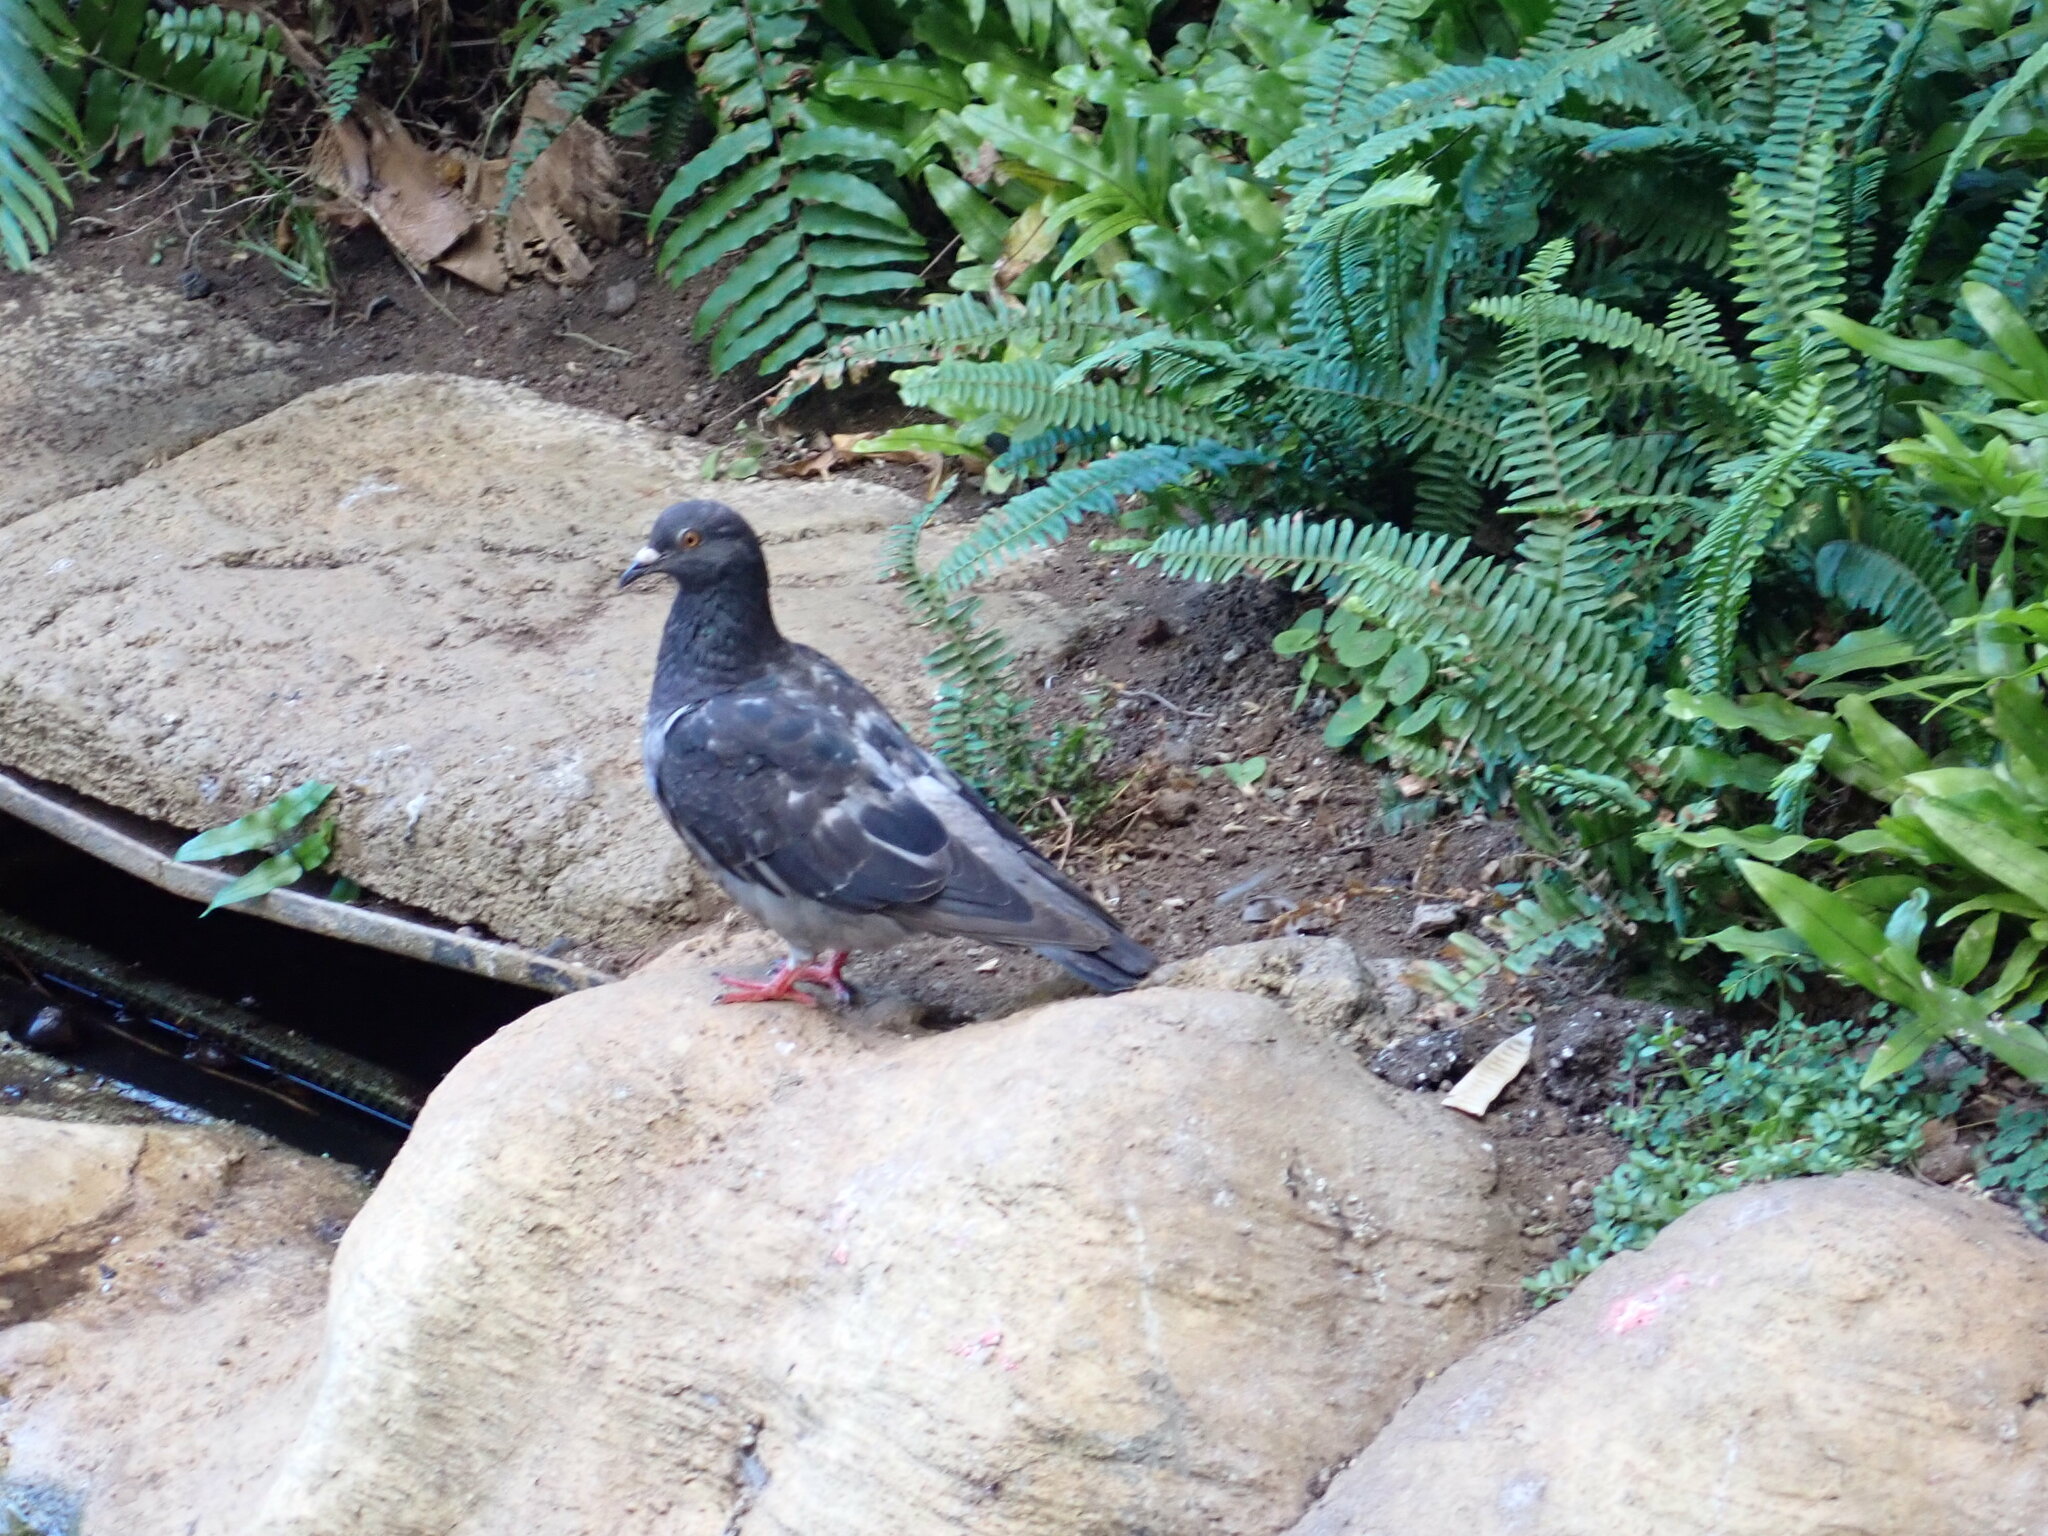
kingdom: Animalia
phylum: Chordata
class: Aves
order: Columbiformes
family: Columbidae
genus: Columba
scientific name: Columba livia
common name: Rock pigeon
